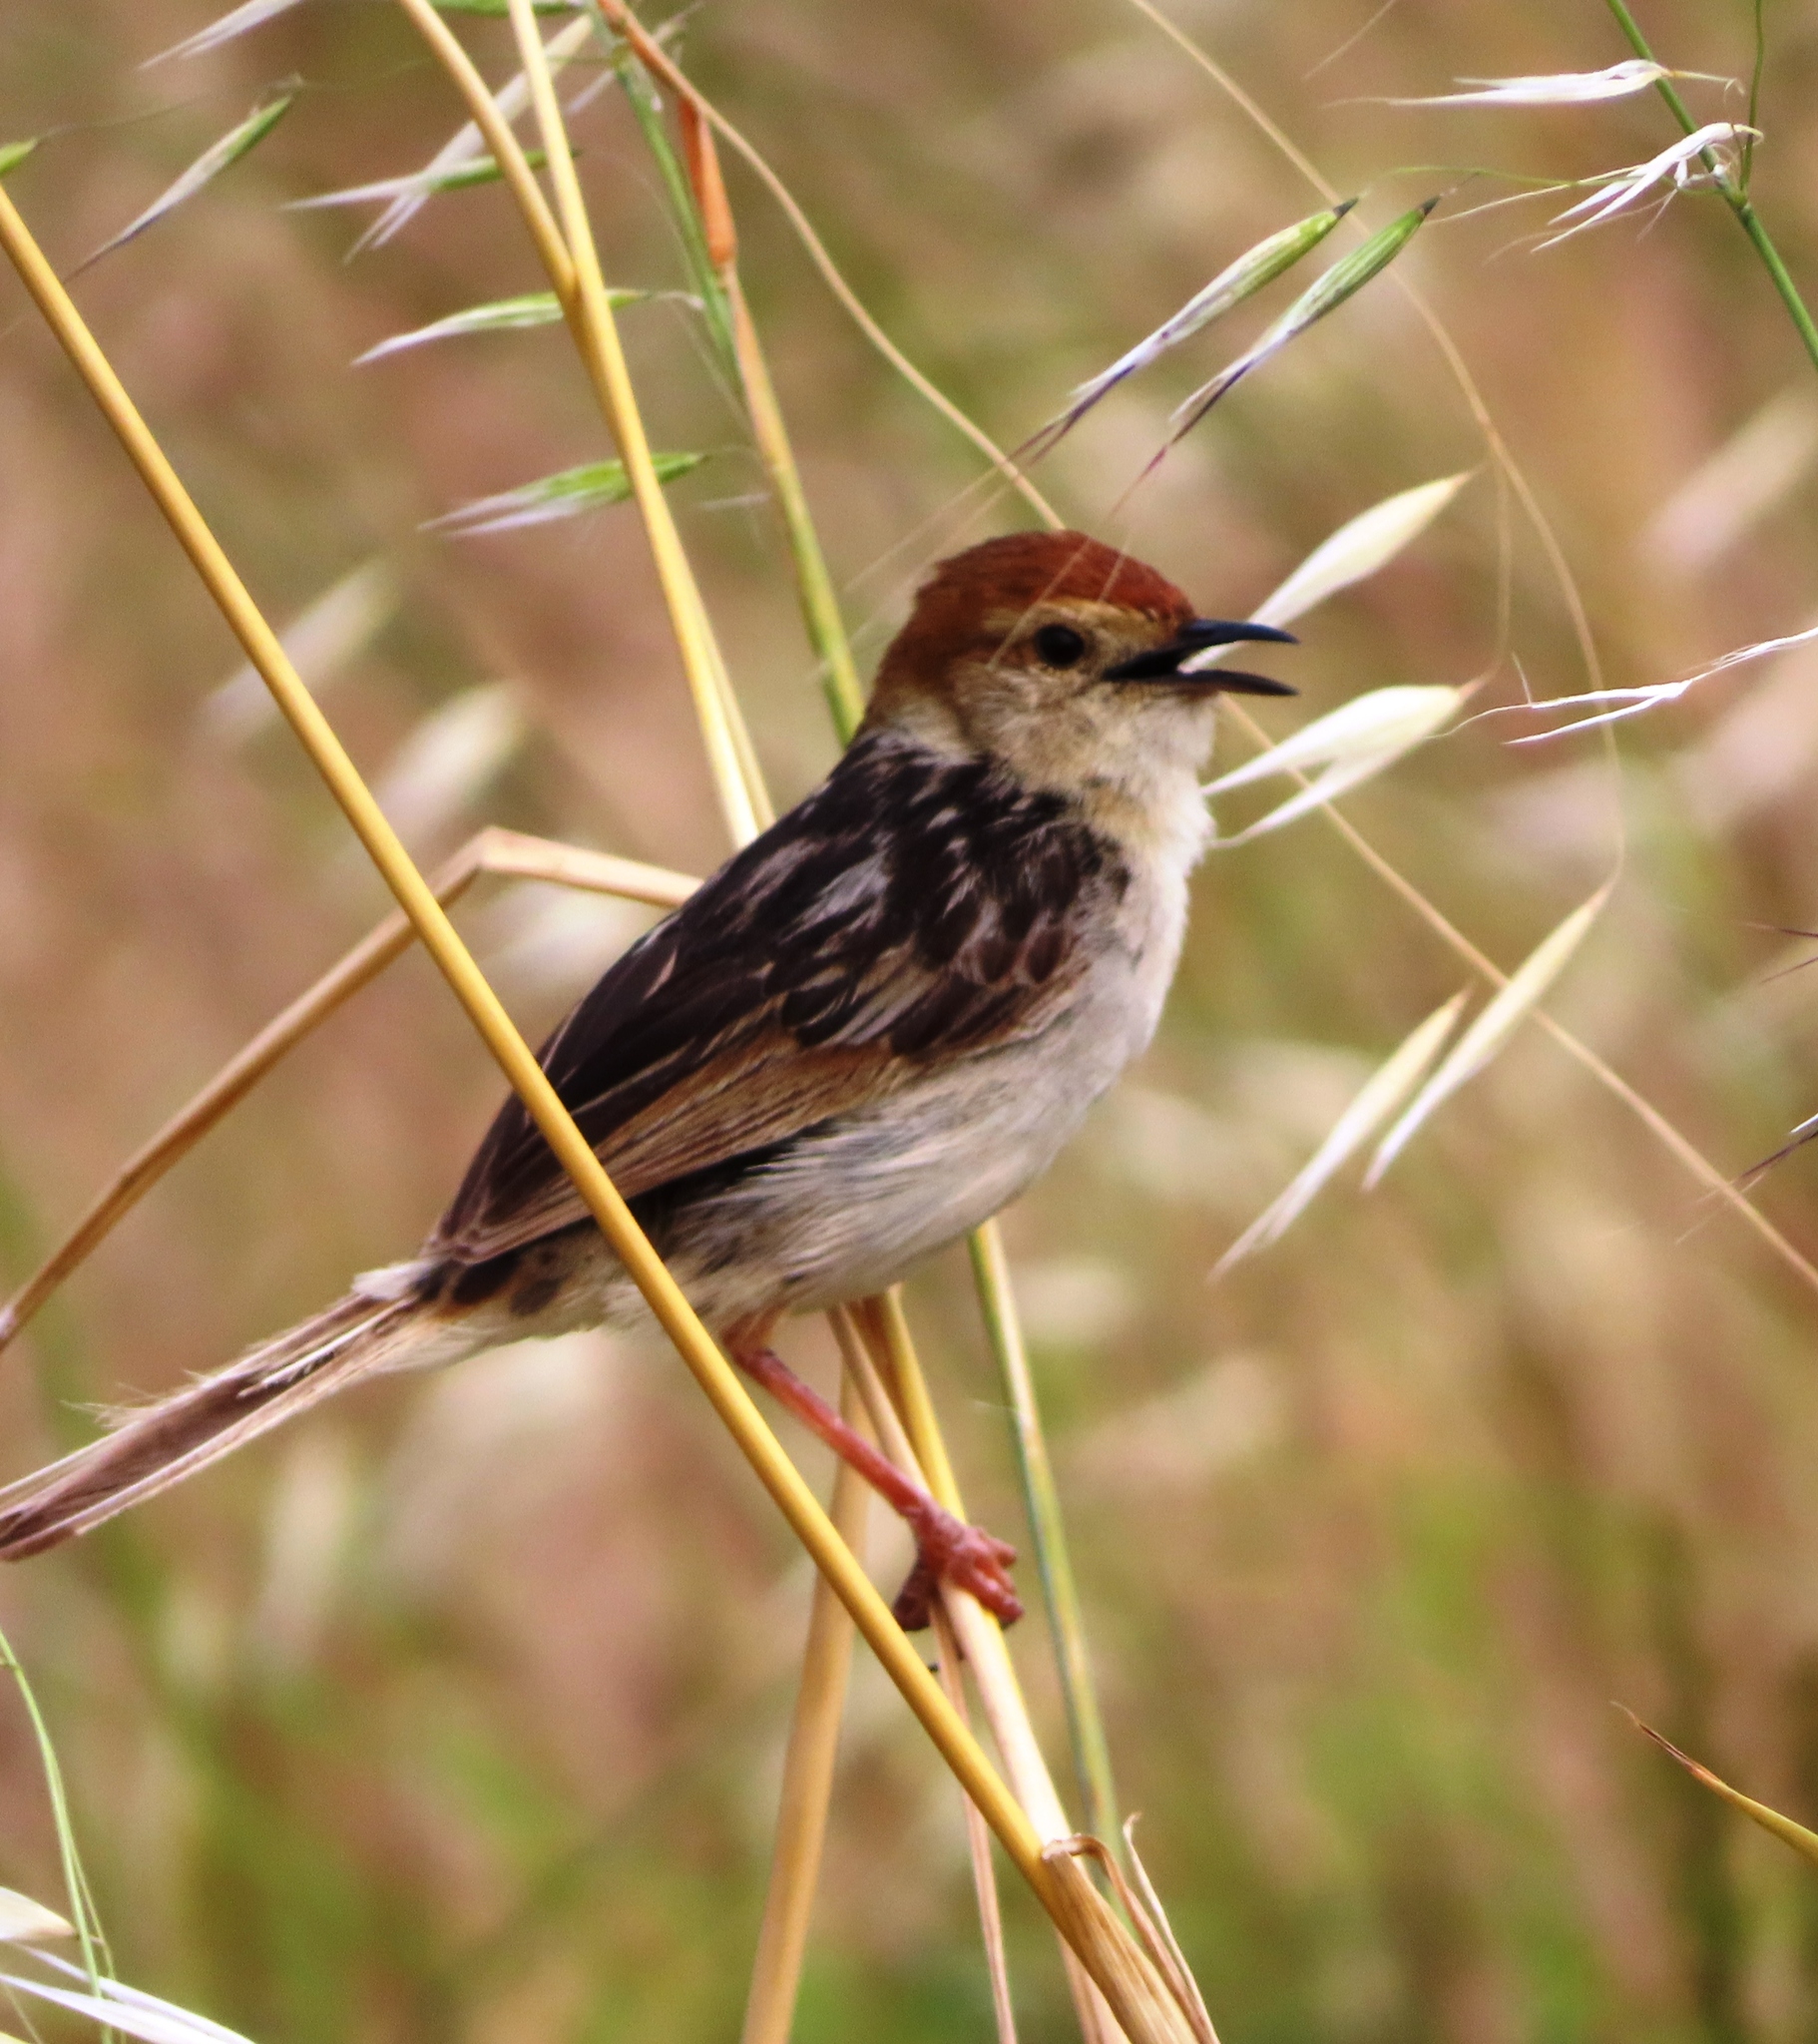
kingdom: Animalia
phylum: Chordata
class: Aves
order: Passeriformes
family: Cisticolidae
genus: Cisticola
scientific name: Cisticola tinniens
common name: Levaillant's cisticola
